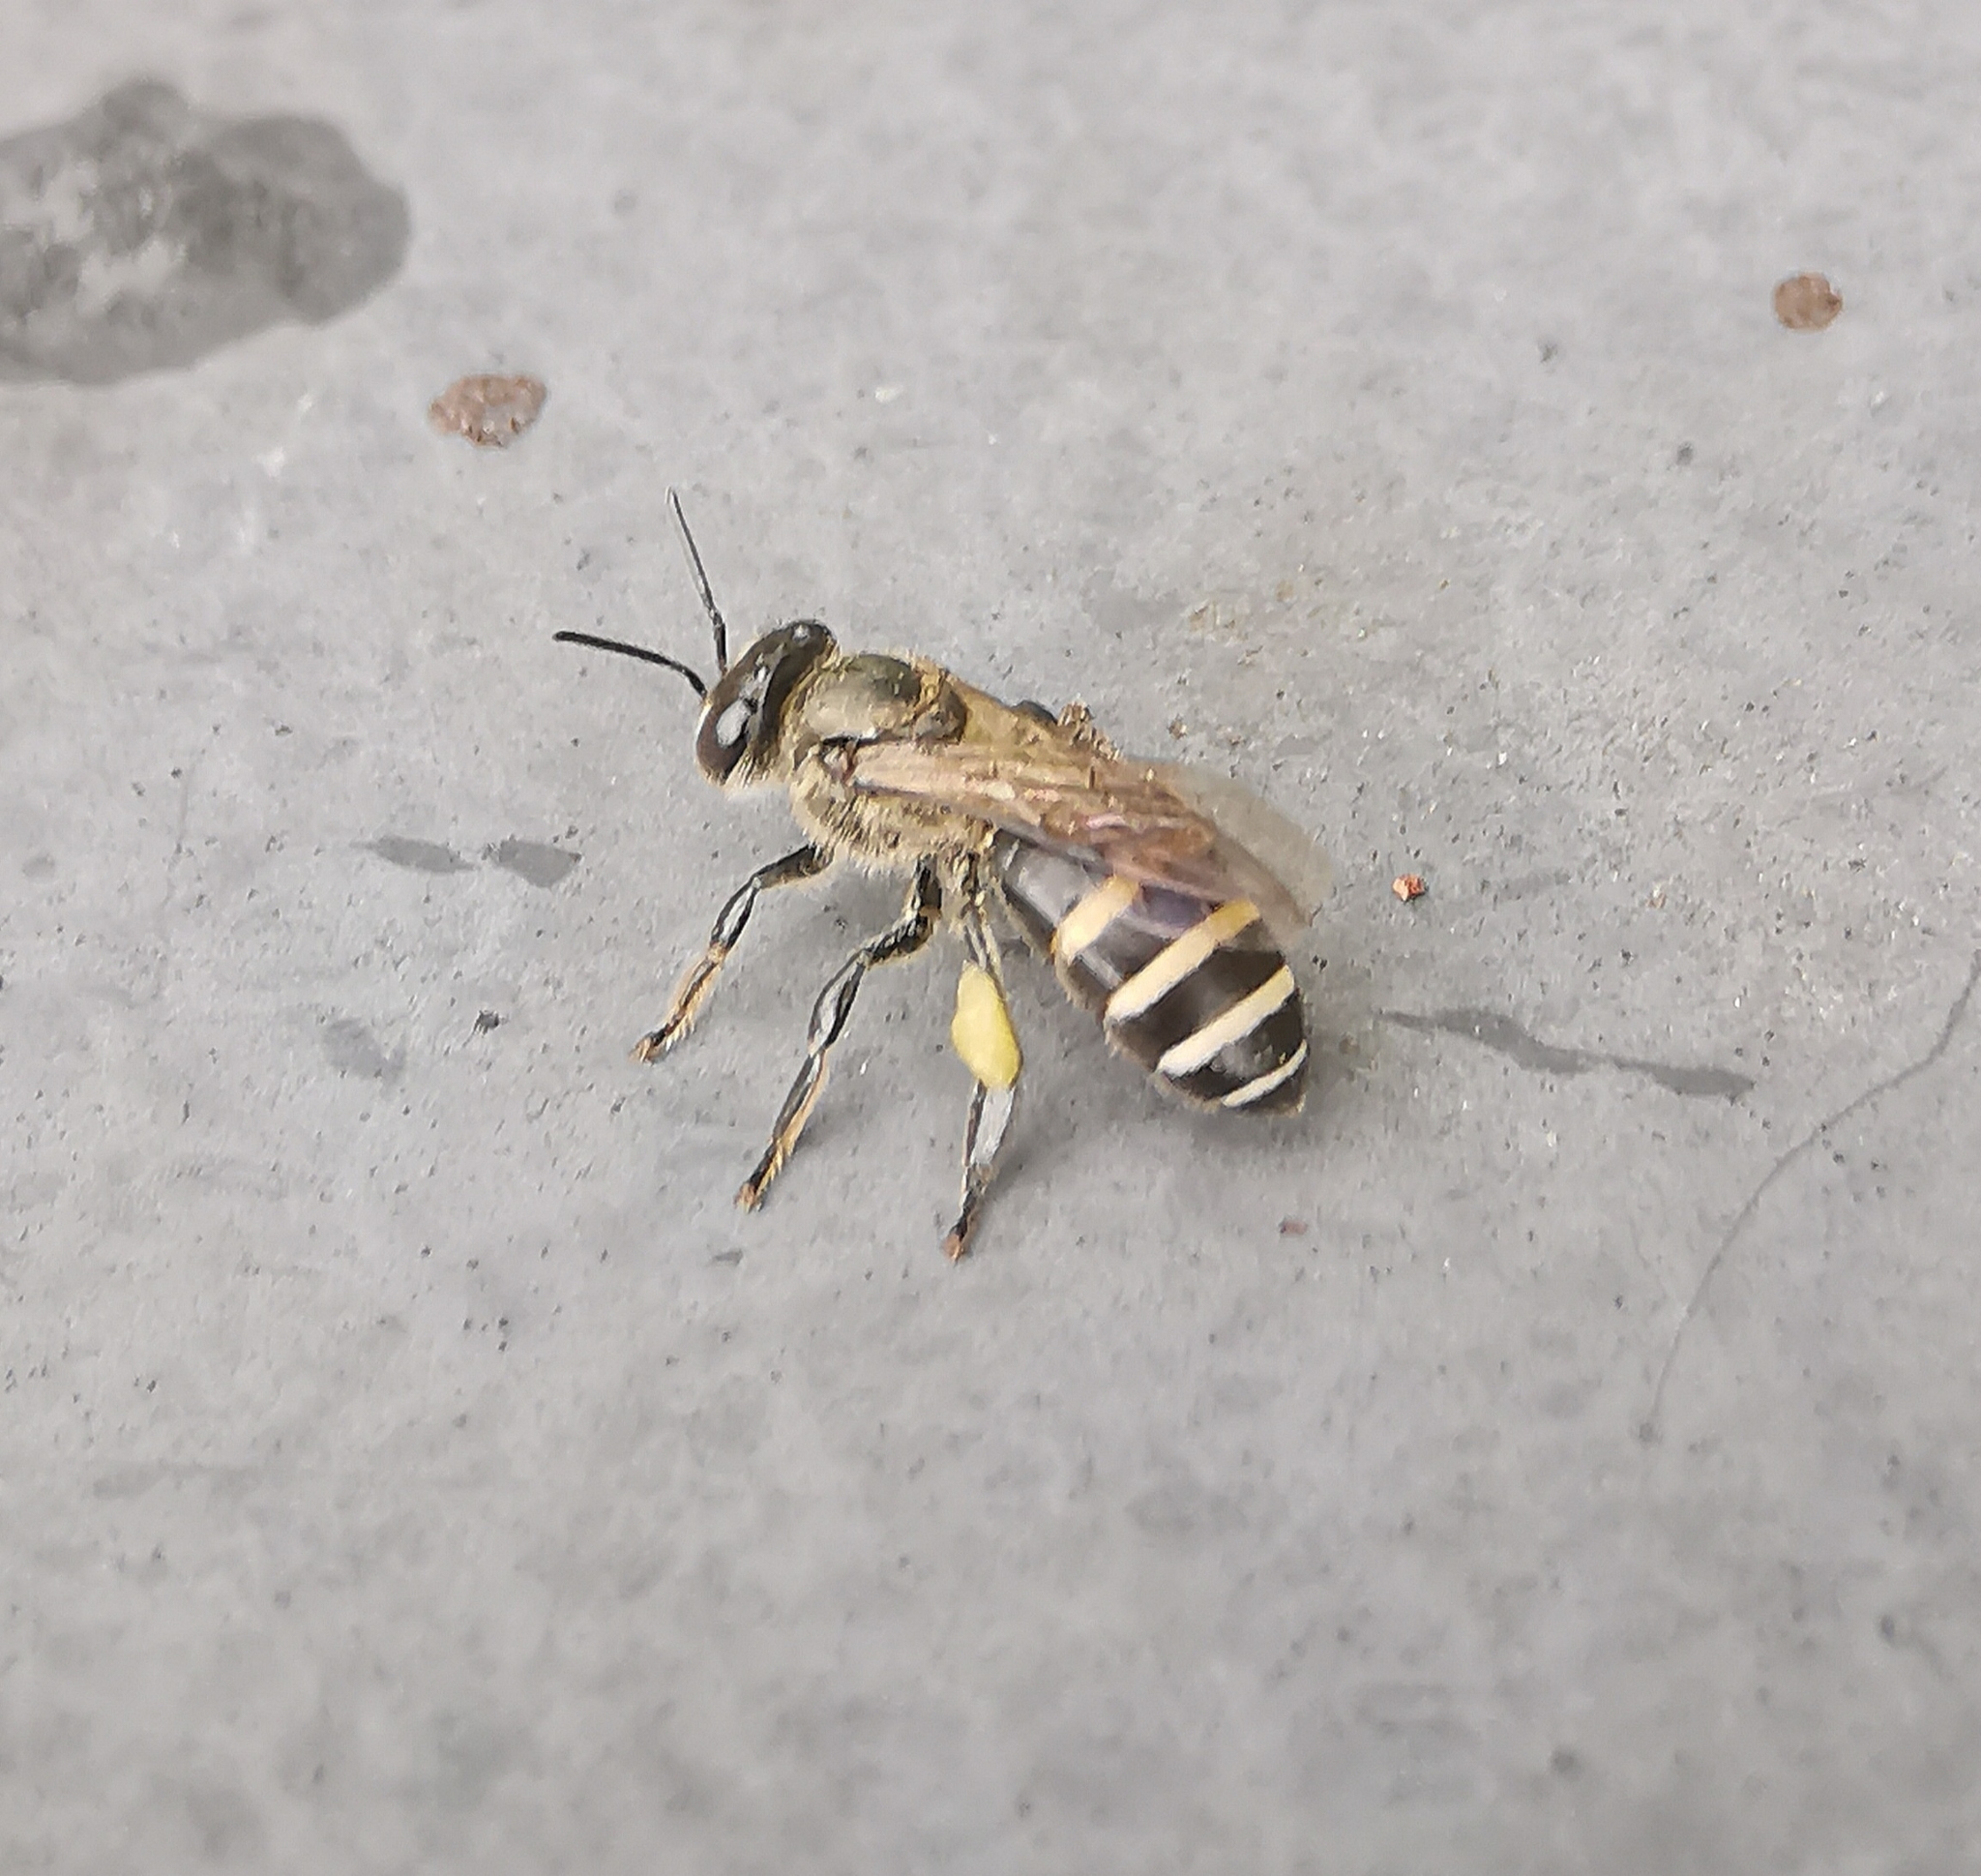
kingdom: Animalia
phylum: Arthropoda
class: Insecta
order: Hymenoptera
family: Apidae
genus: Apis
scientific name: Apis andreniformis
